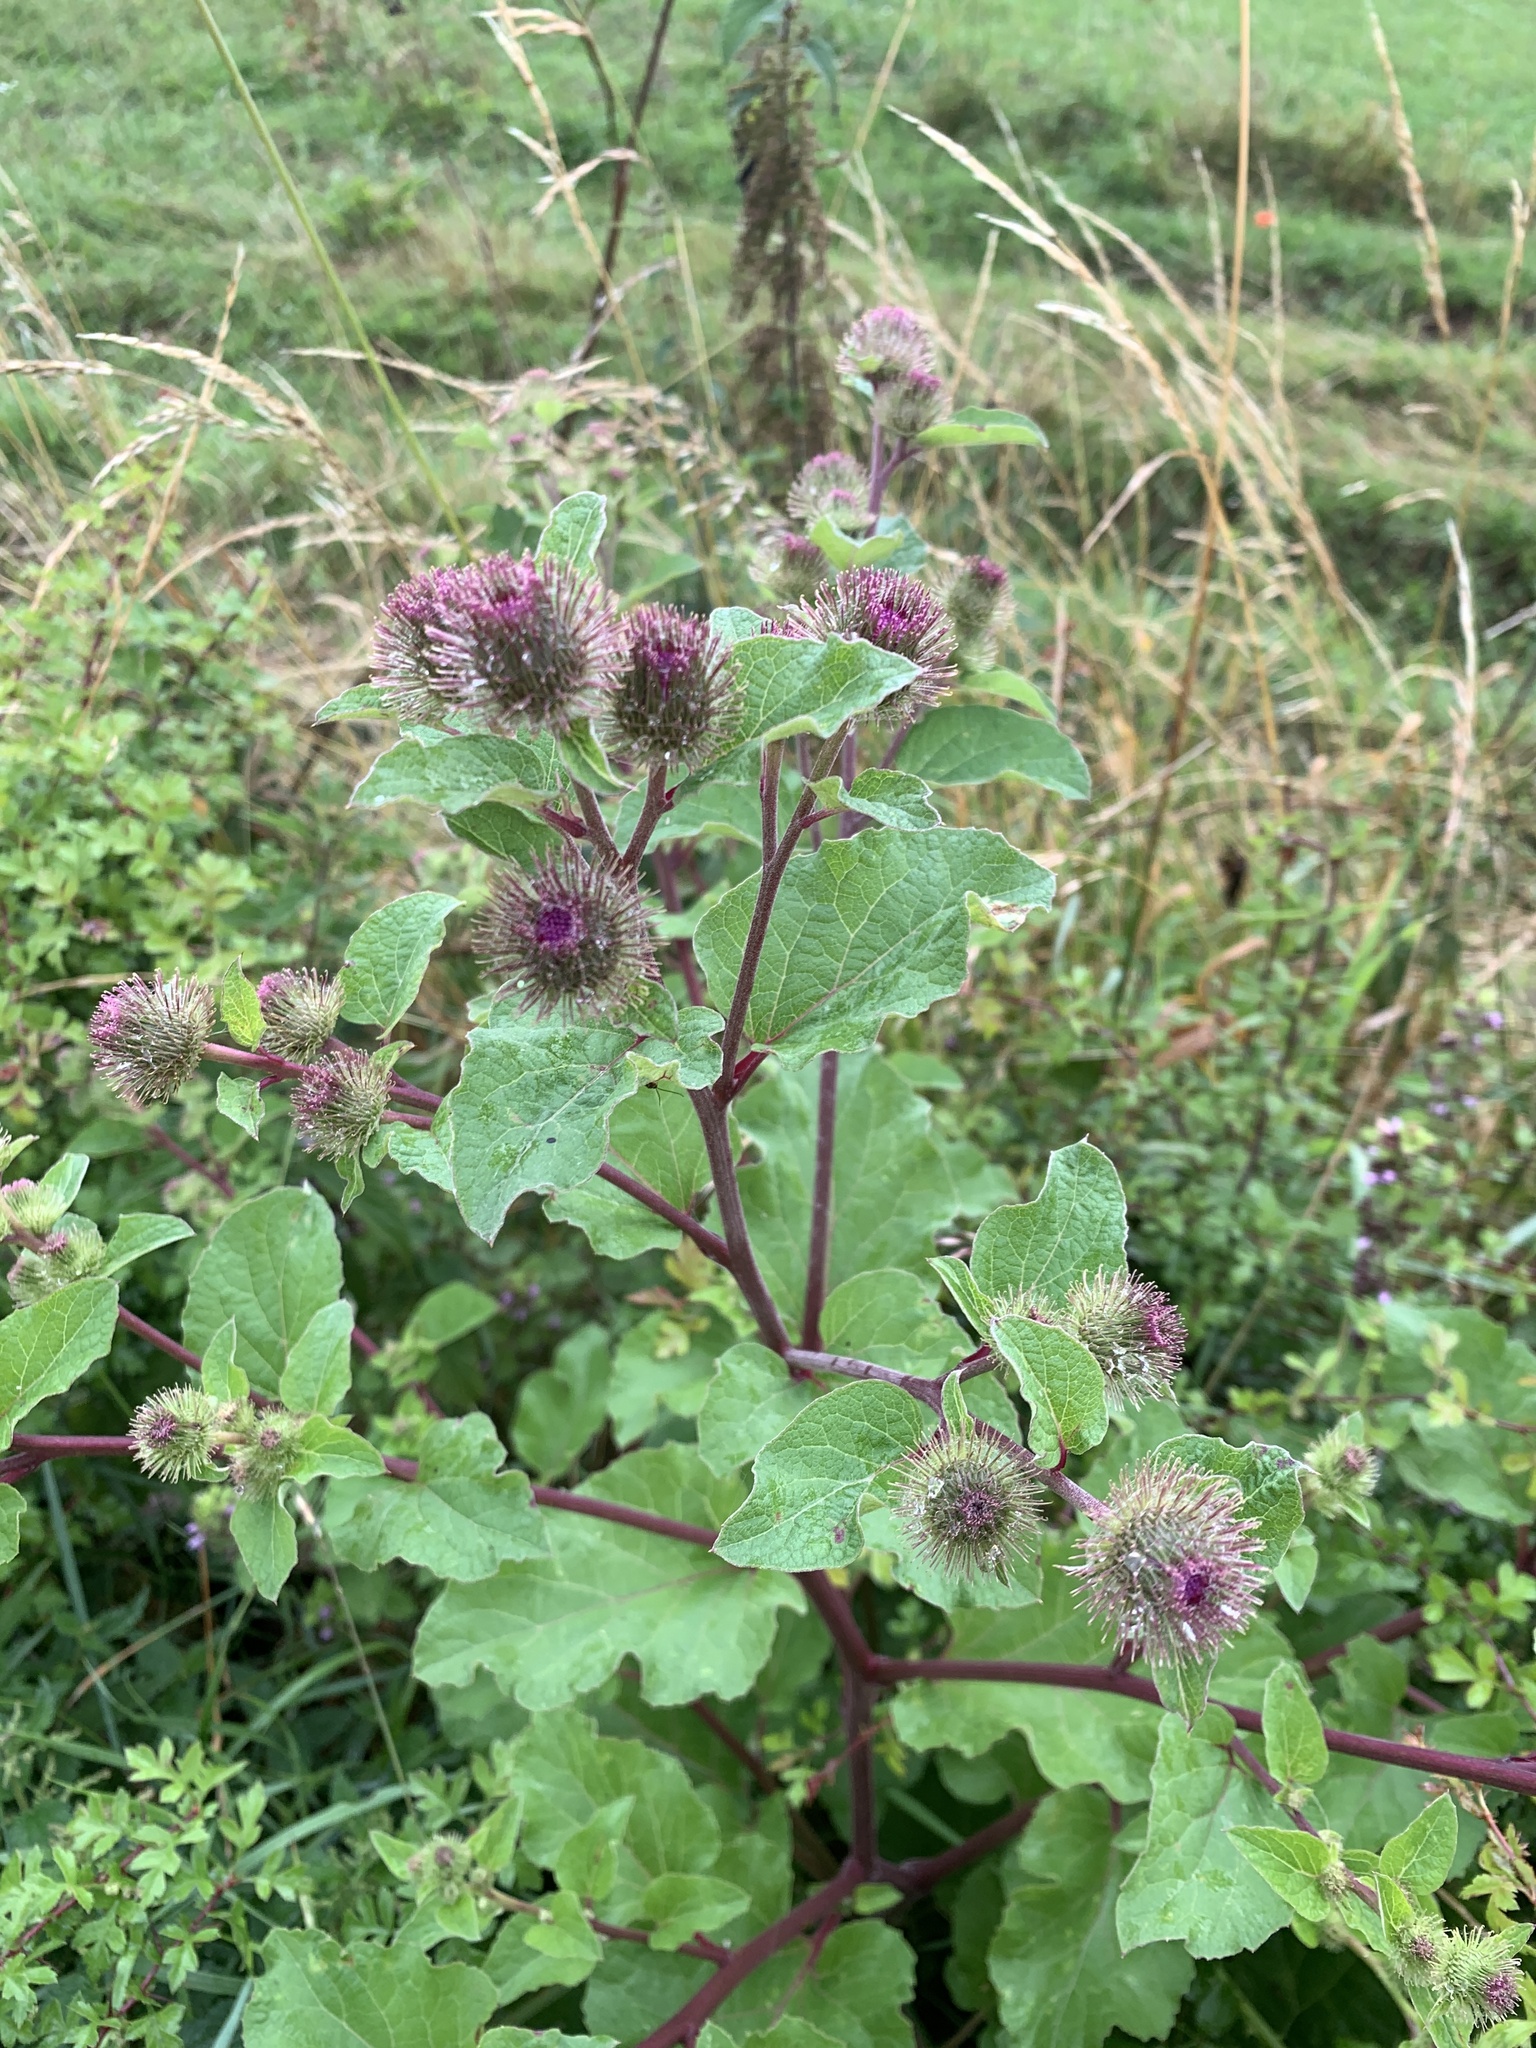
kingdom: Plantae
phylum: Tracheophyta
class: Magnoliopsida
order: Asterales
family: Asteraceae
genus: Arctium
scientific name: Arctium lappa
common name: Greater burdock
